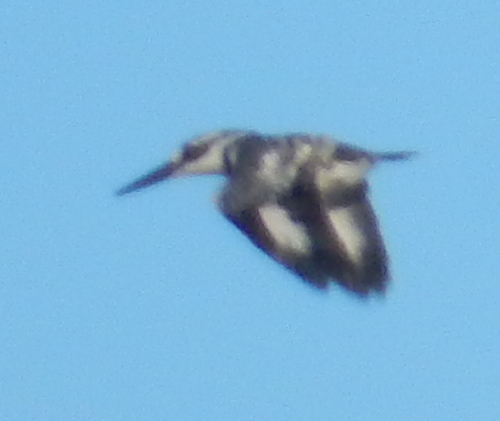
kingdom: Animalia
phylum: Chordata
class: Aves
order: Coraciiformes
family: Alcedinidae
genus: Ceryle
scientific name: Ceryle rudis
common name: Pied kingfisher
